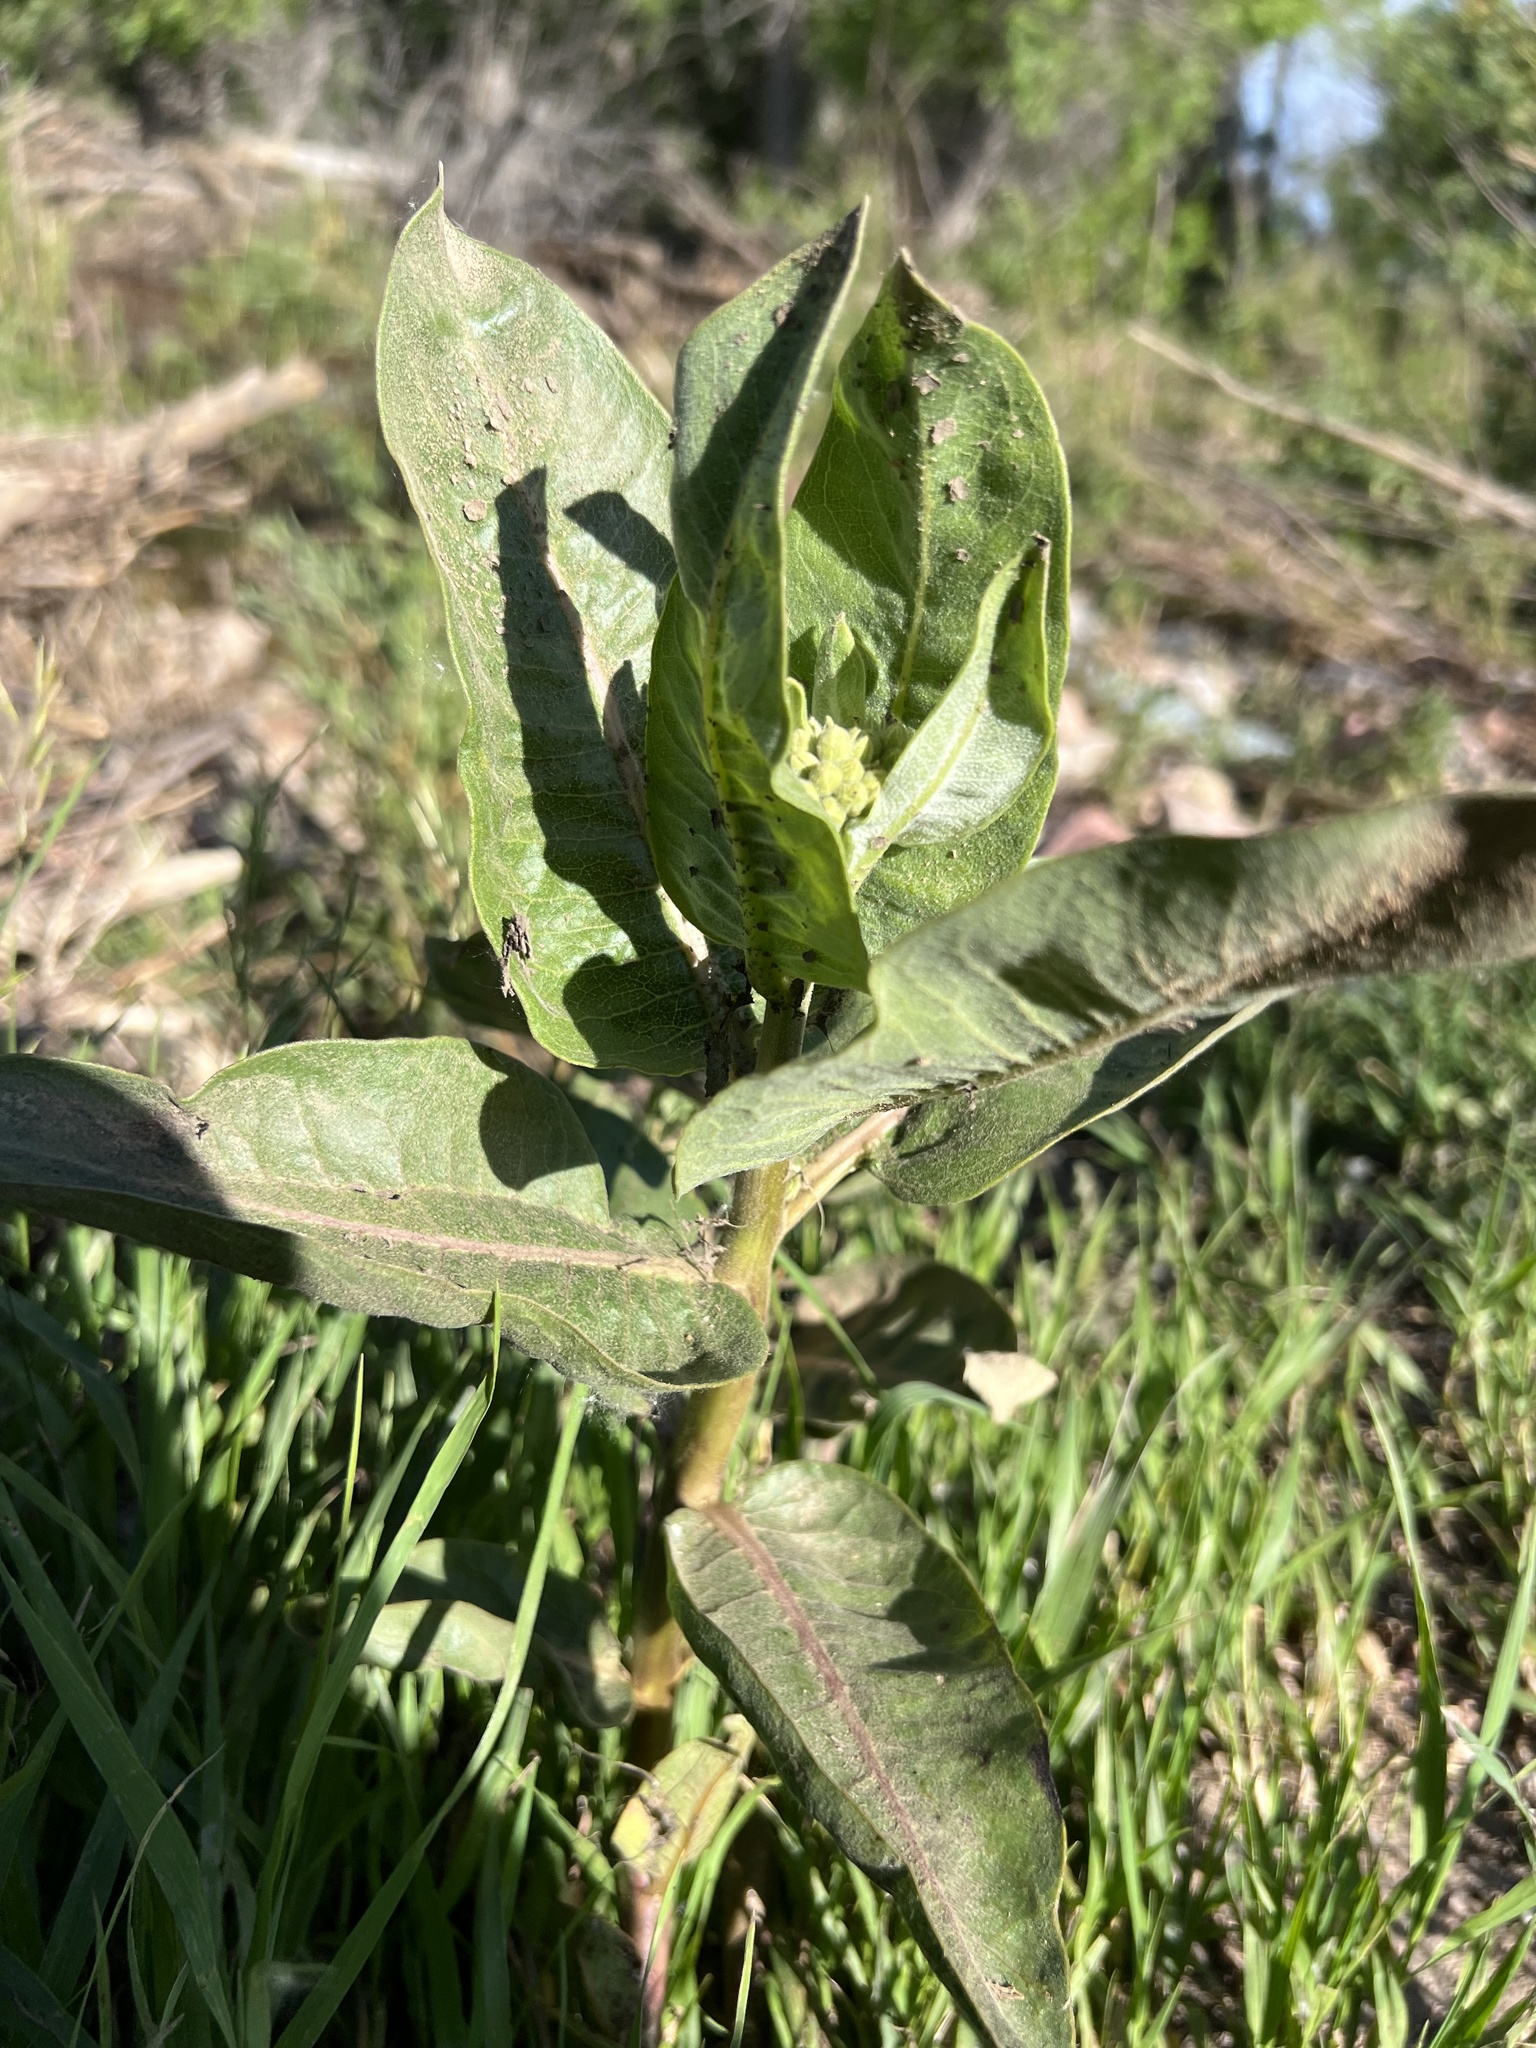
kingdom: Plantae
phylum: Tracheophyta
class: Magnoliopsida
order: Gentianales
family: Apocynaceae
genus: Asclepias
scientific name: Asclepias speciosa
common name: Showy milkweed
